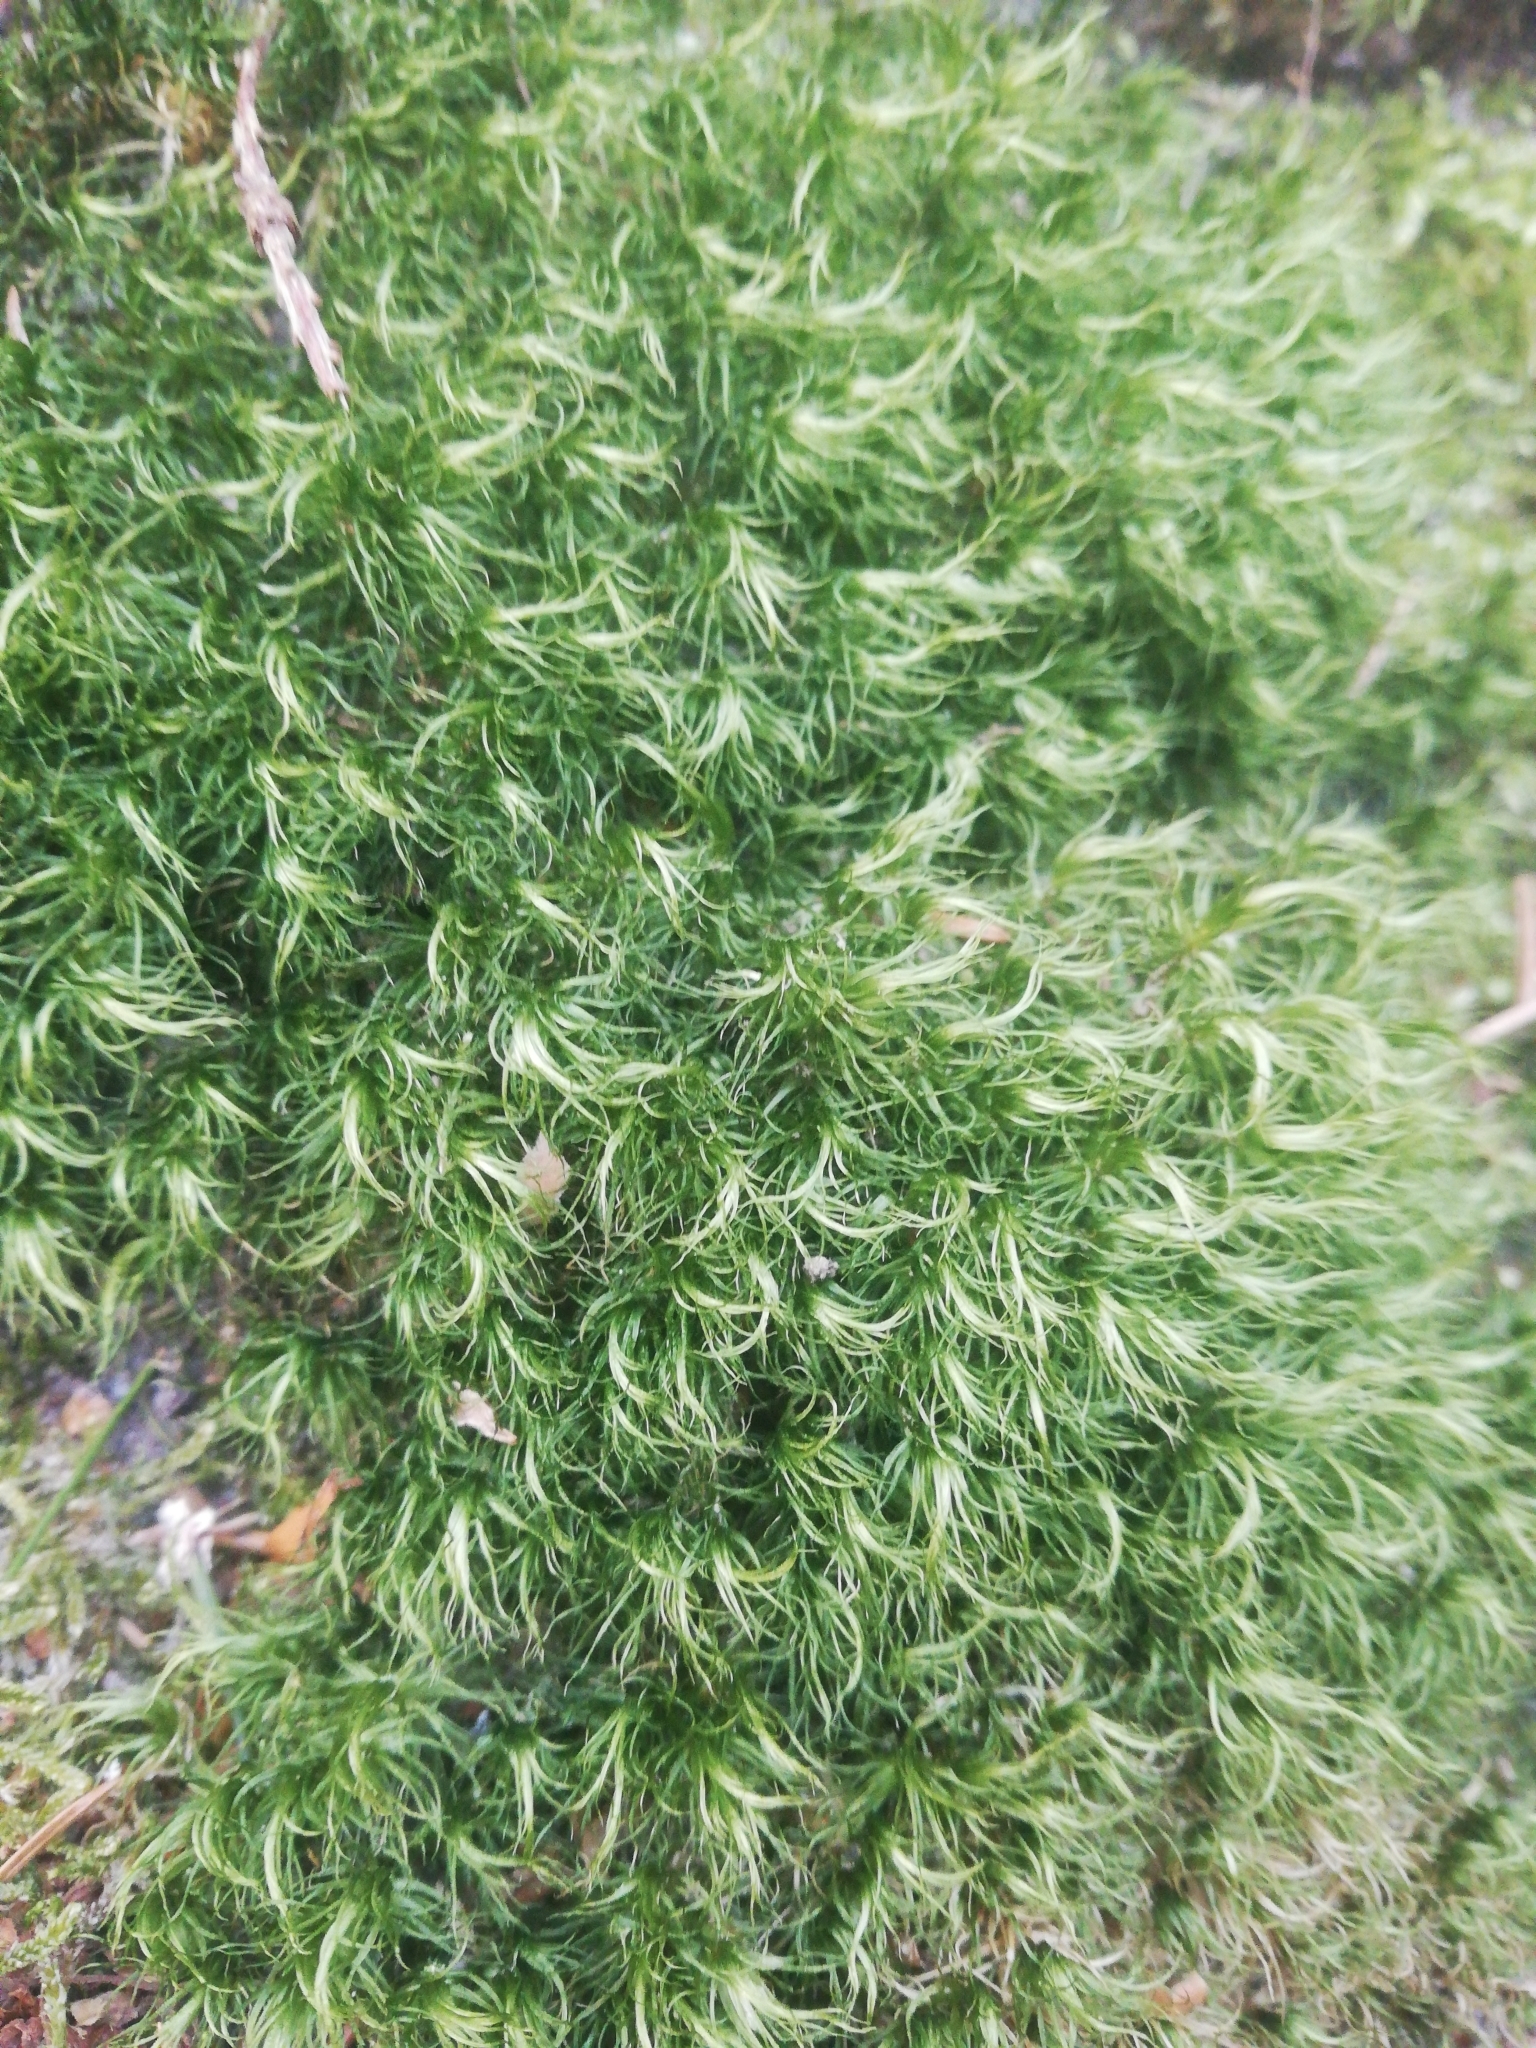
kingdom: Plantae
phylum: Bryophyta
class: Bryopsida
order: Dicranales
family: Dicranaceae
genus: Dicranum
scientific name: Dicranum scoparium
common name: Broom fork-moss
